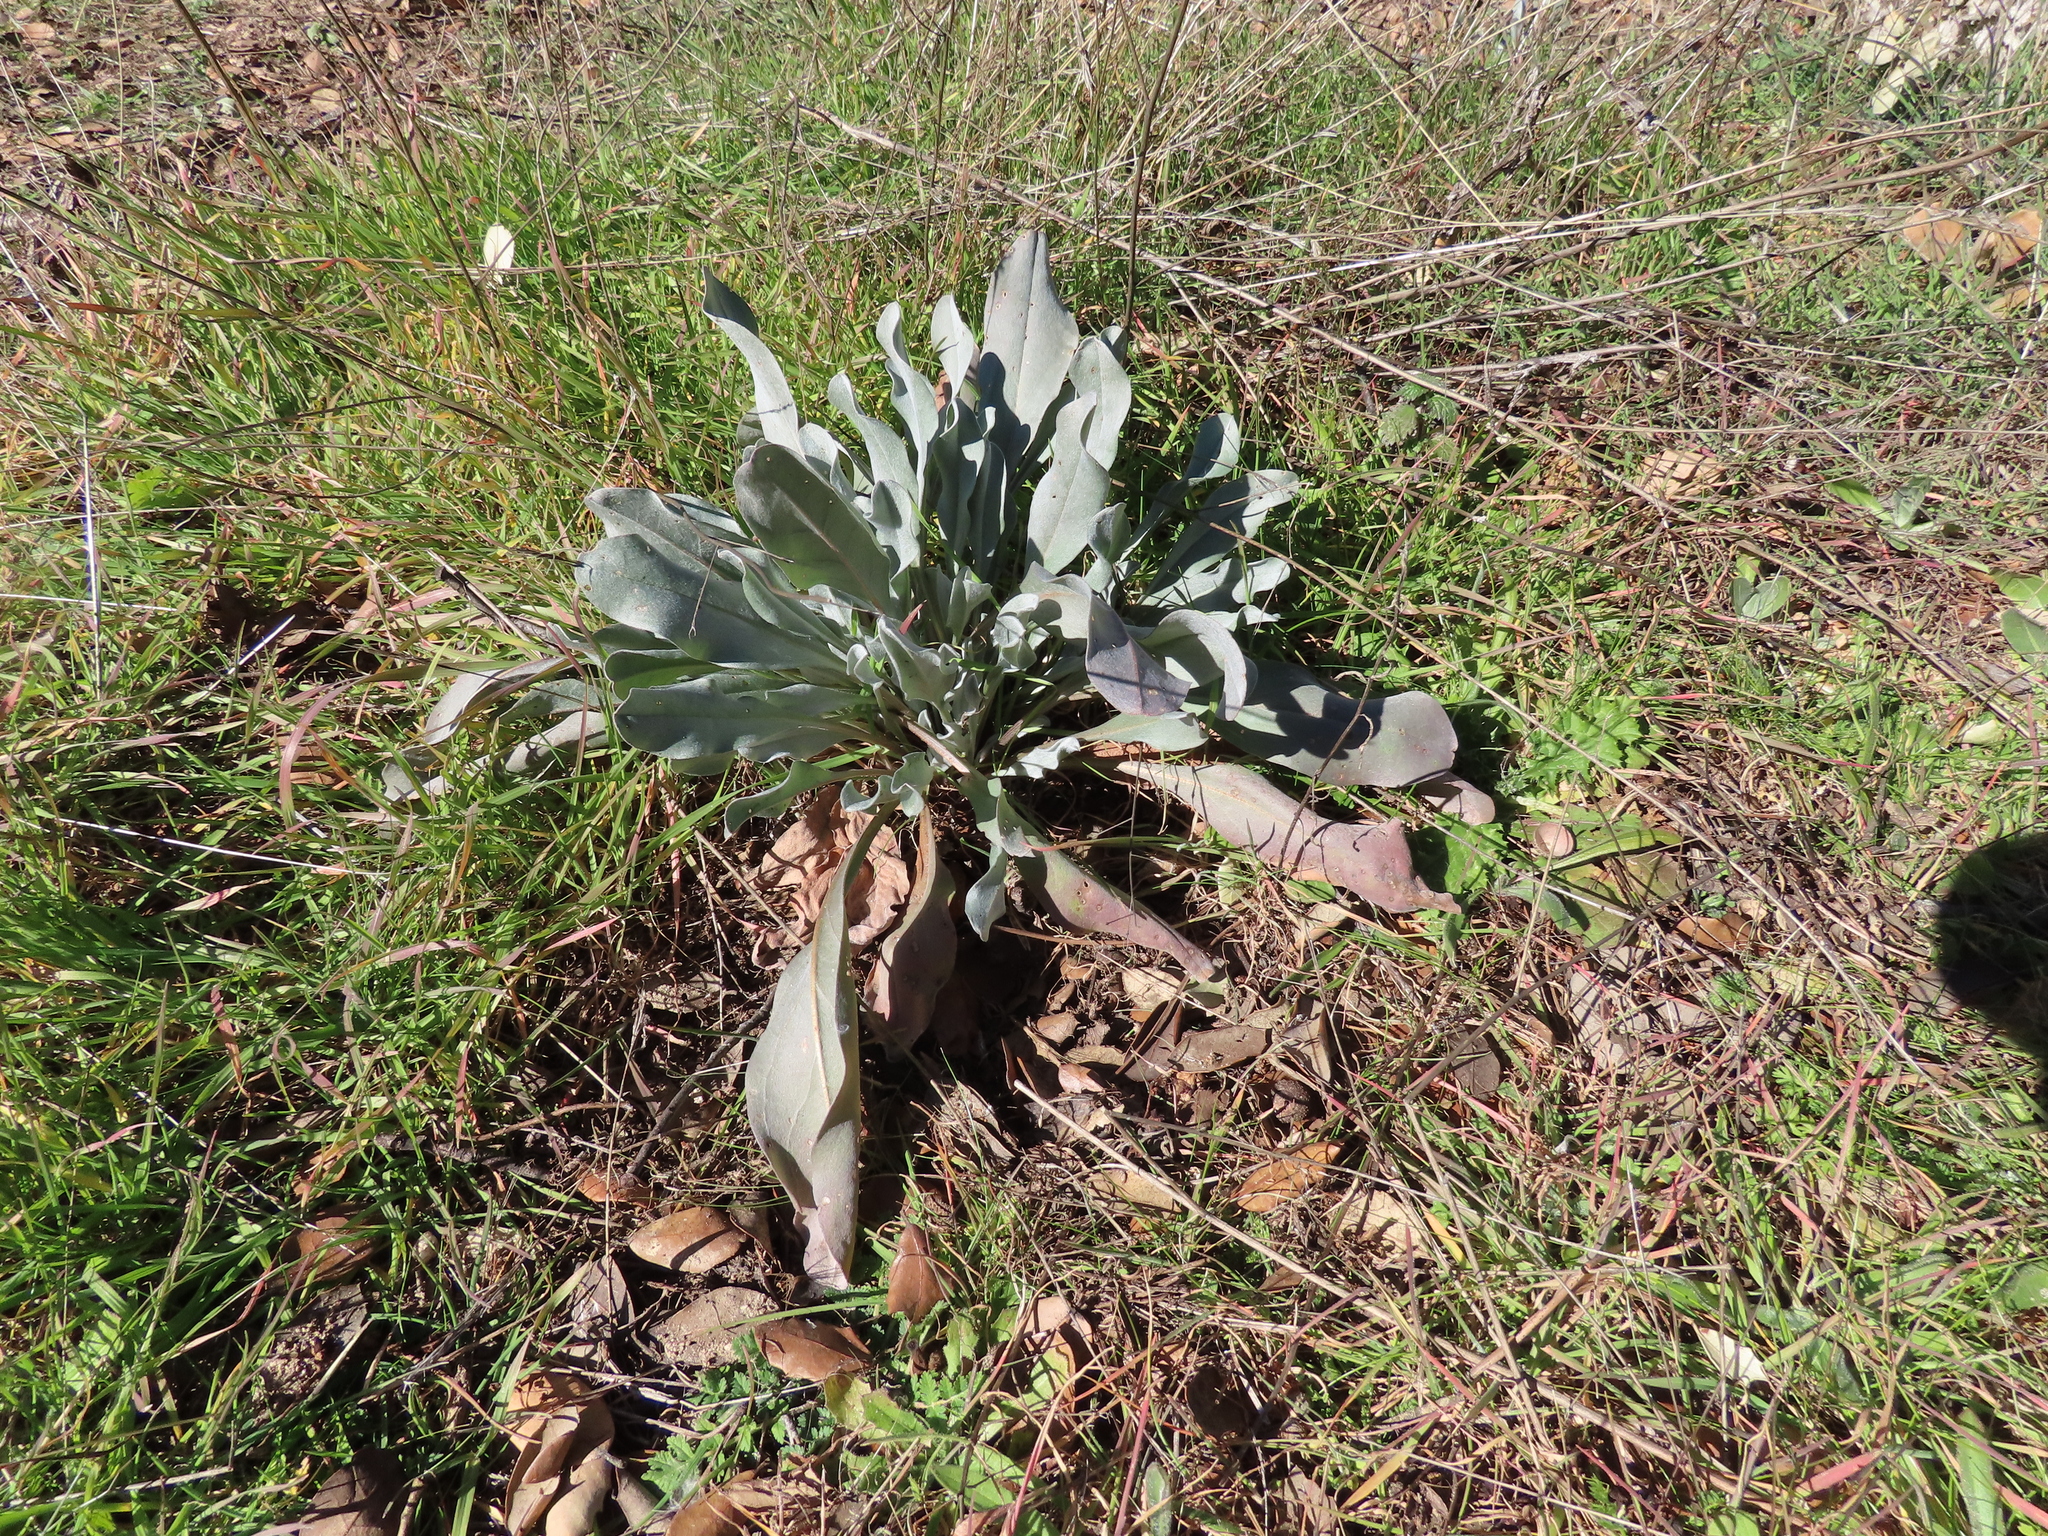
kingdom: Plantae
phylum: Tracheophyta
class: Magnoliopsida
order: Boraginales
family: Boraginaceae
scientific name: Boraginaceae
